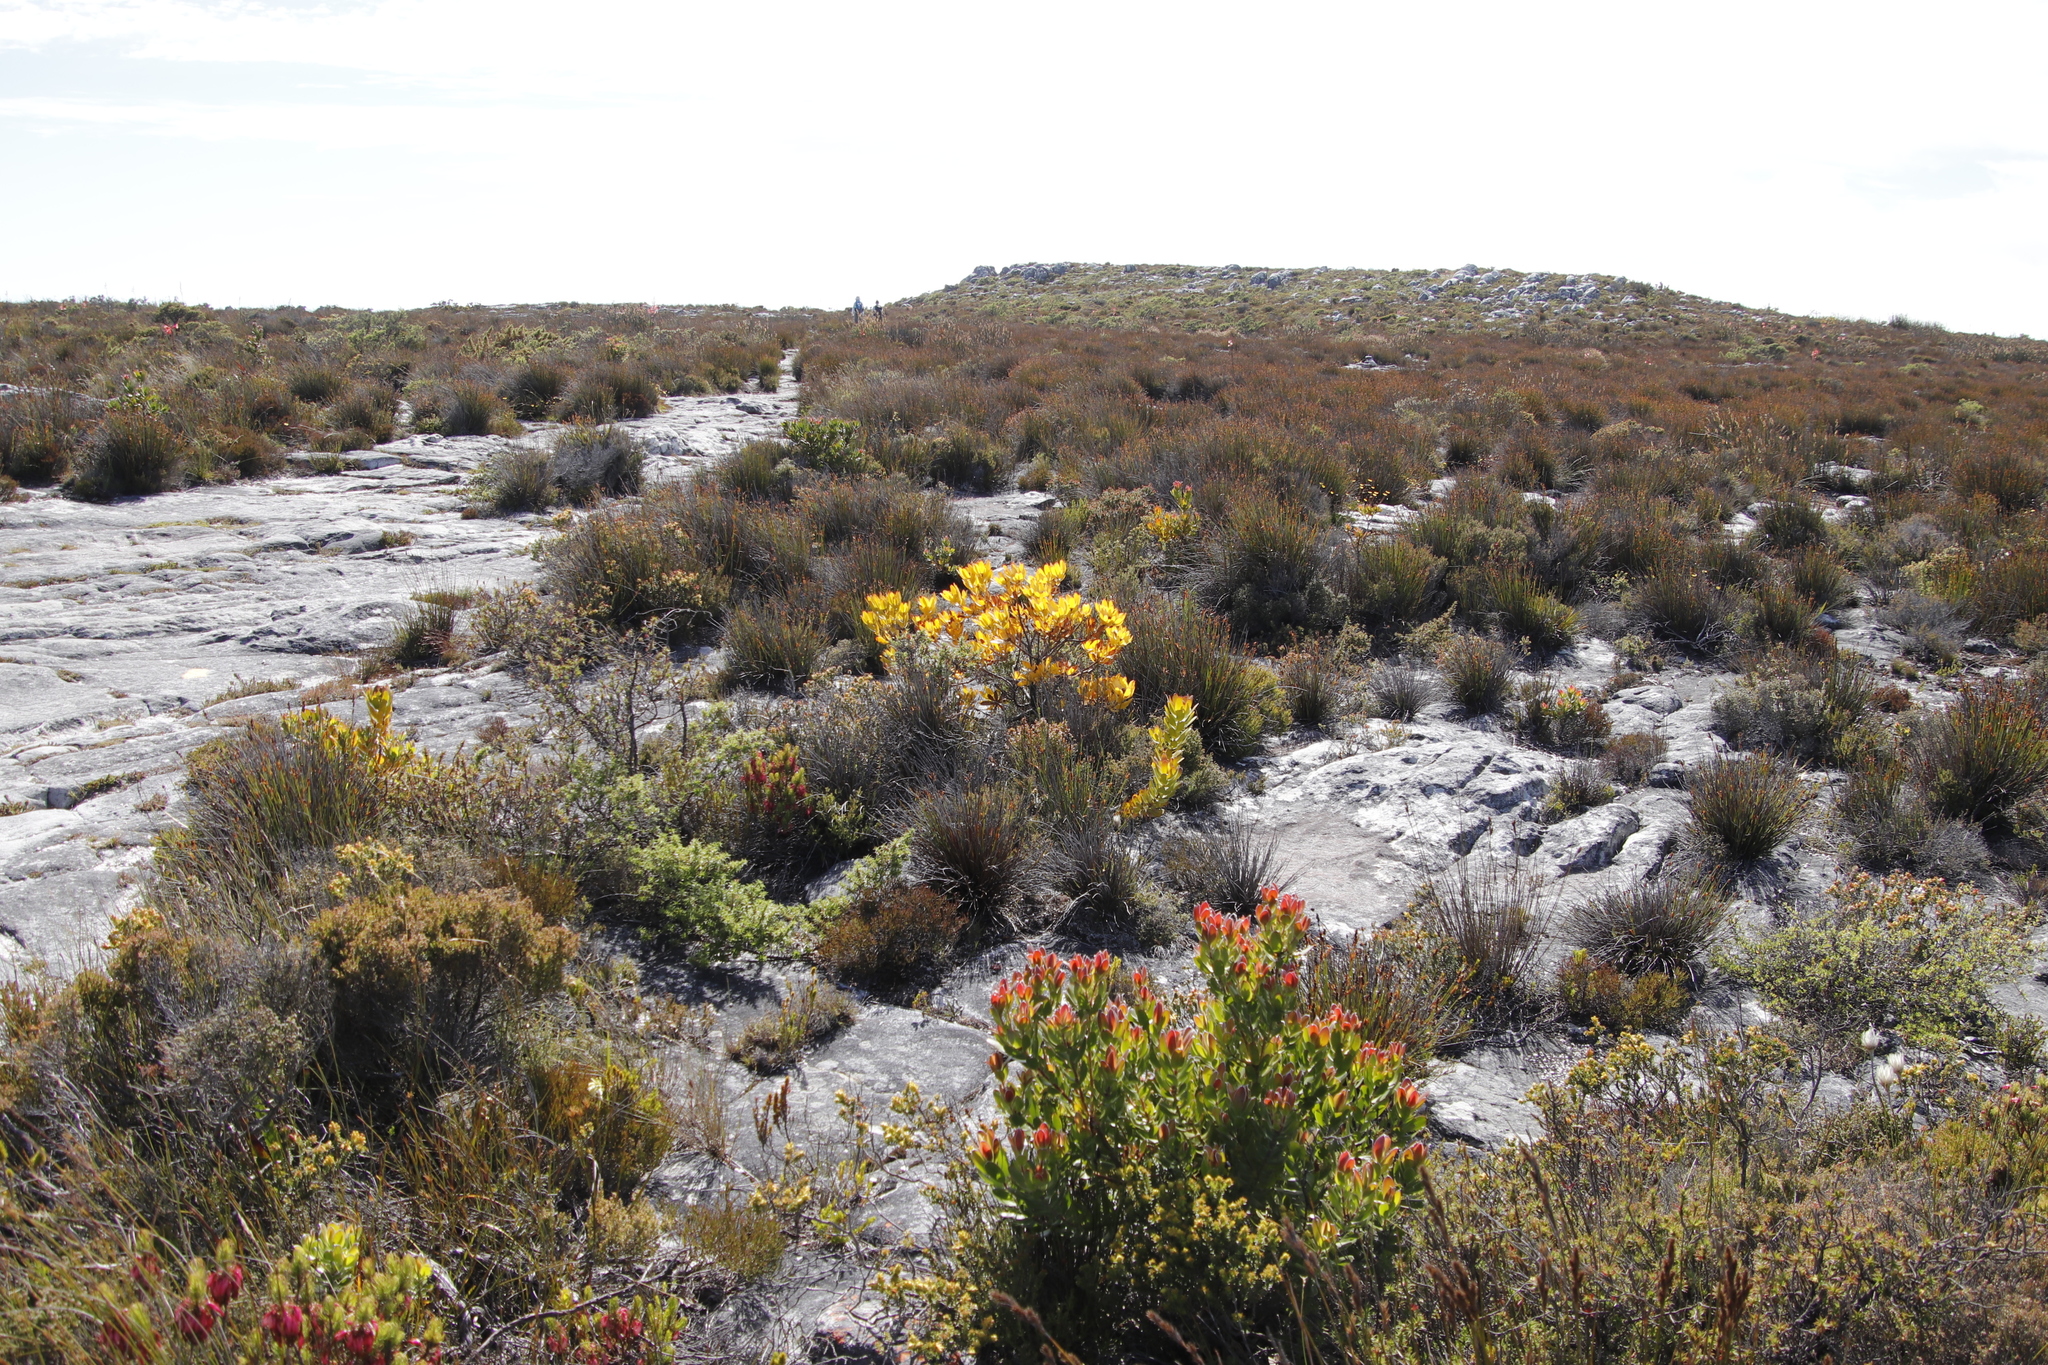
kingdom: Plantae
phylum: Tracheophyta
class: Magnoliopsida
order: Proteales
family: Proteaceae
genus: Leucadendron
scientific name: Leucadendron strobilinum
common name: Mountain rose
